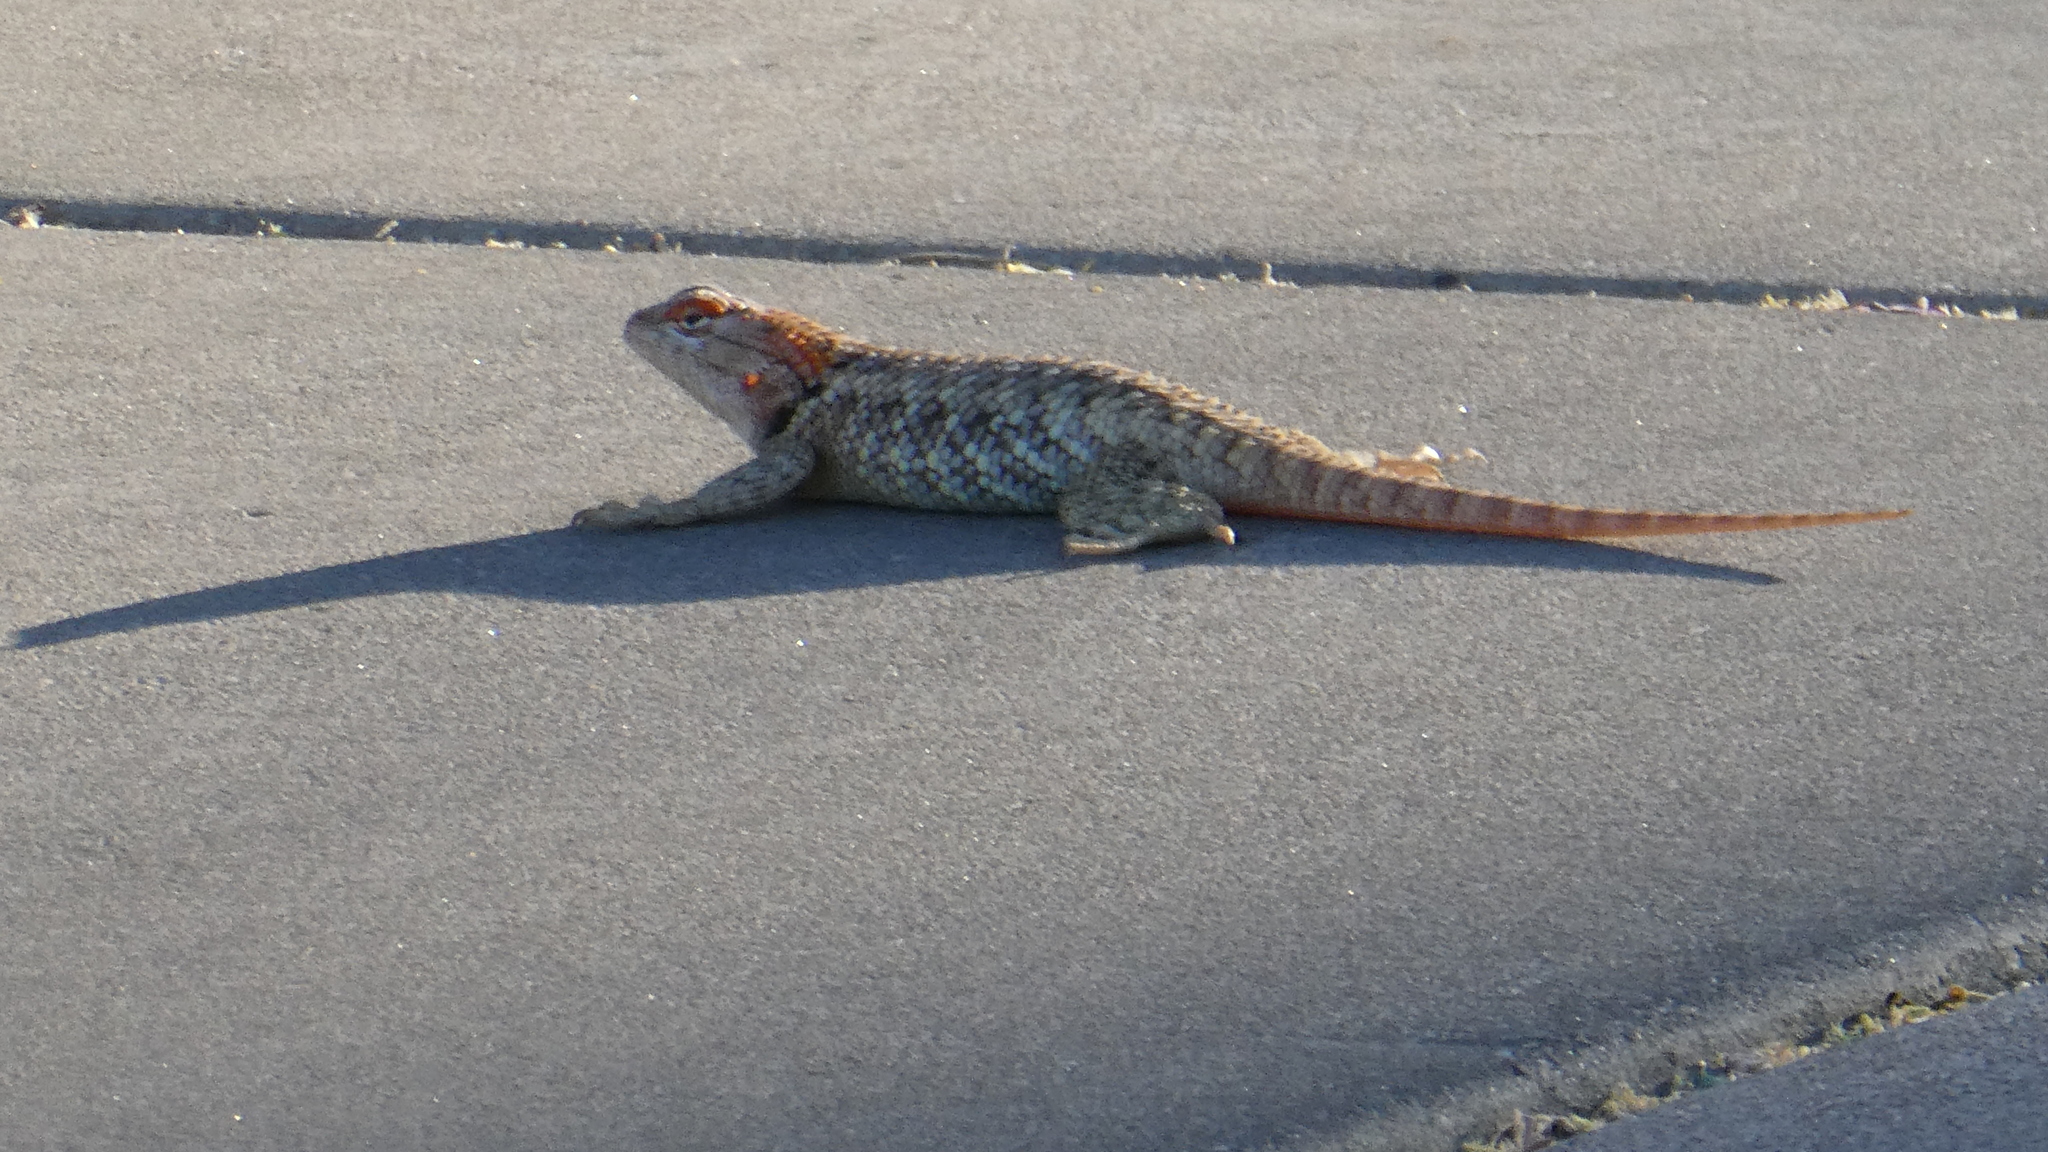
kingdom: Animalia
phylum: Chordata
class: Squamata
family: Phrynosomatidae
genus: Sceloporus
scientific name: Sceloporus magister
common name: Desert spiny lizard
